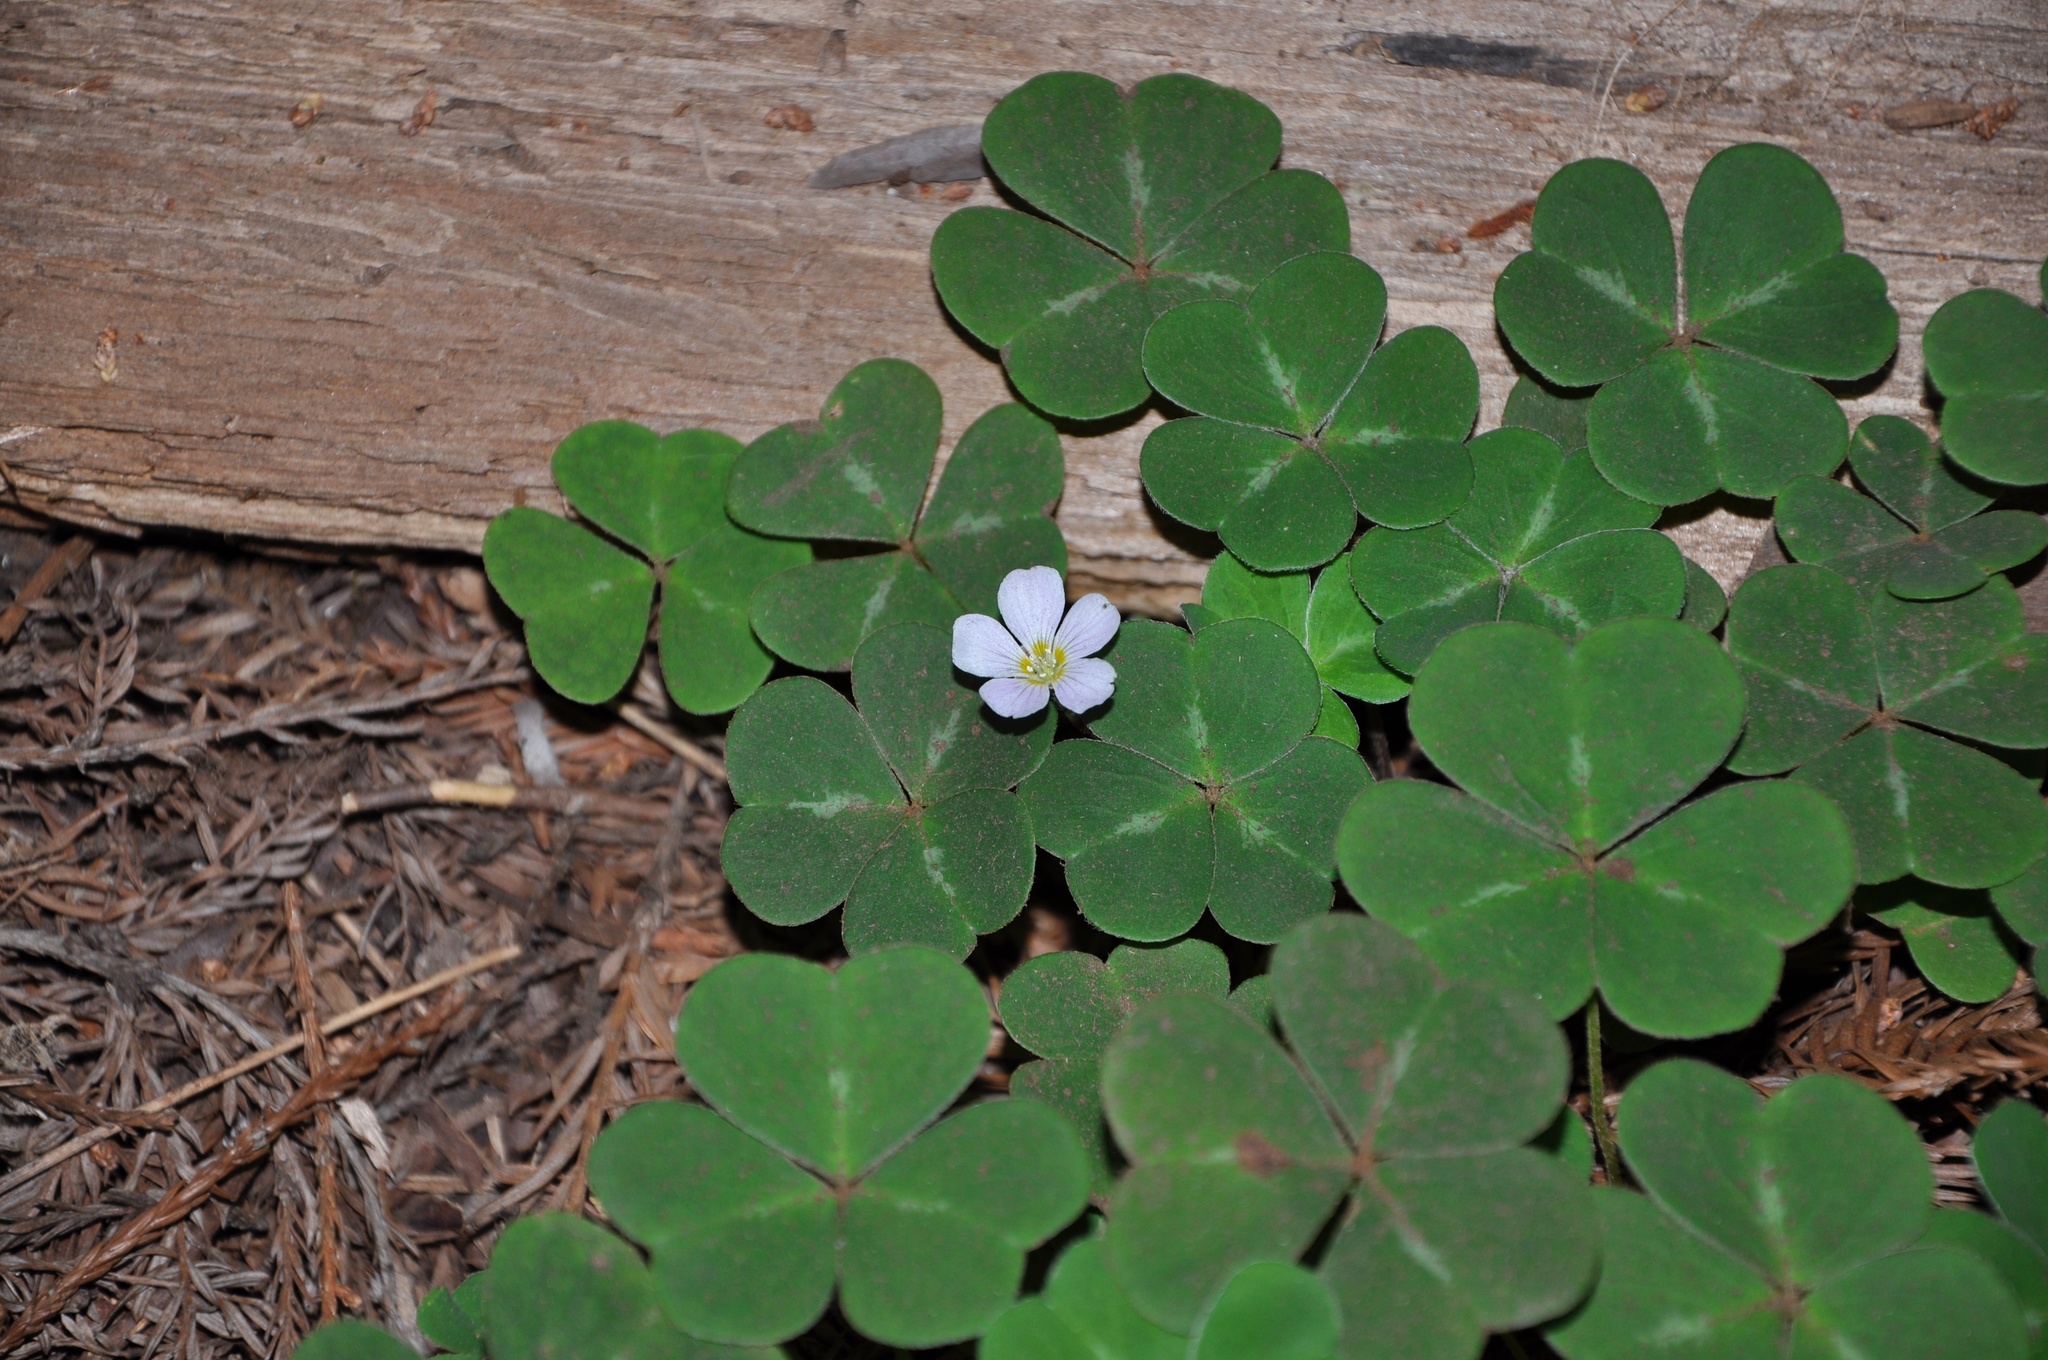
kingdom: Plantae
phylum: Tracheophyta
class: Magnoliopsida
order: Oxalidales
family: Oxalidaceae
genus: Oxalis
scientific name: Oxalis oregana
